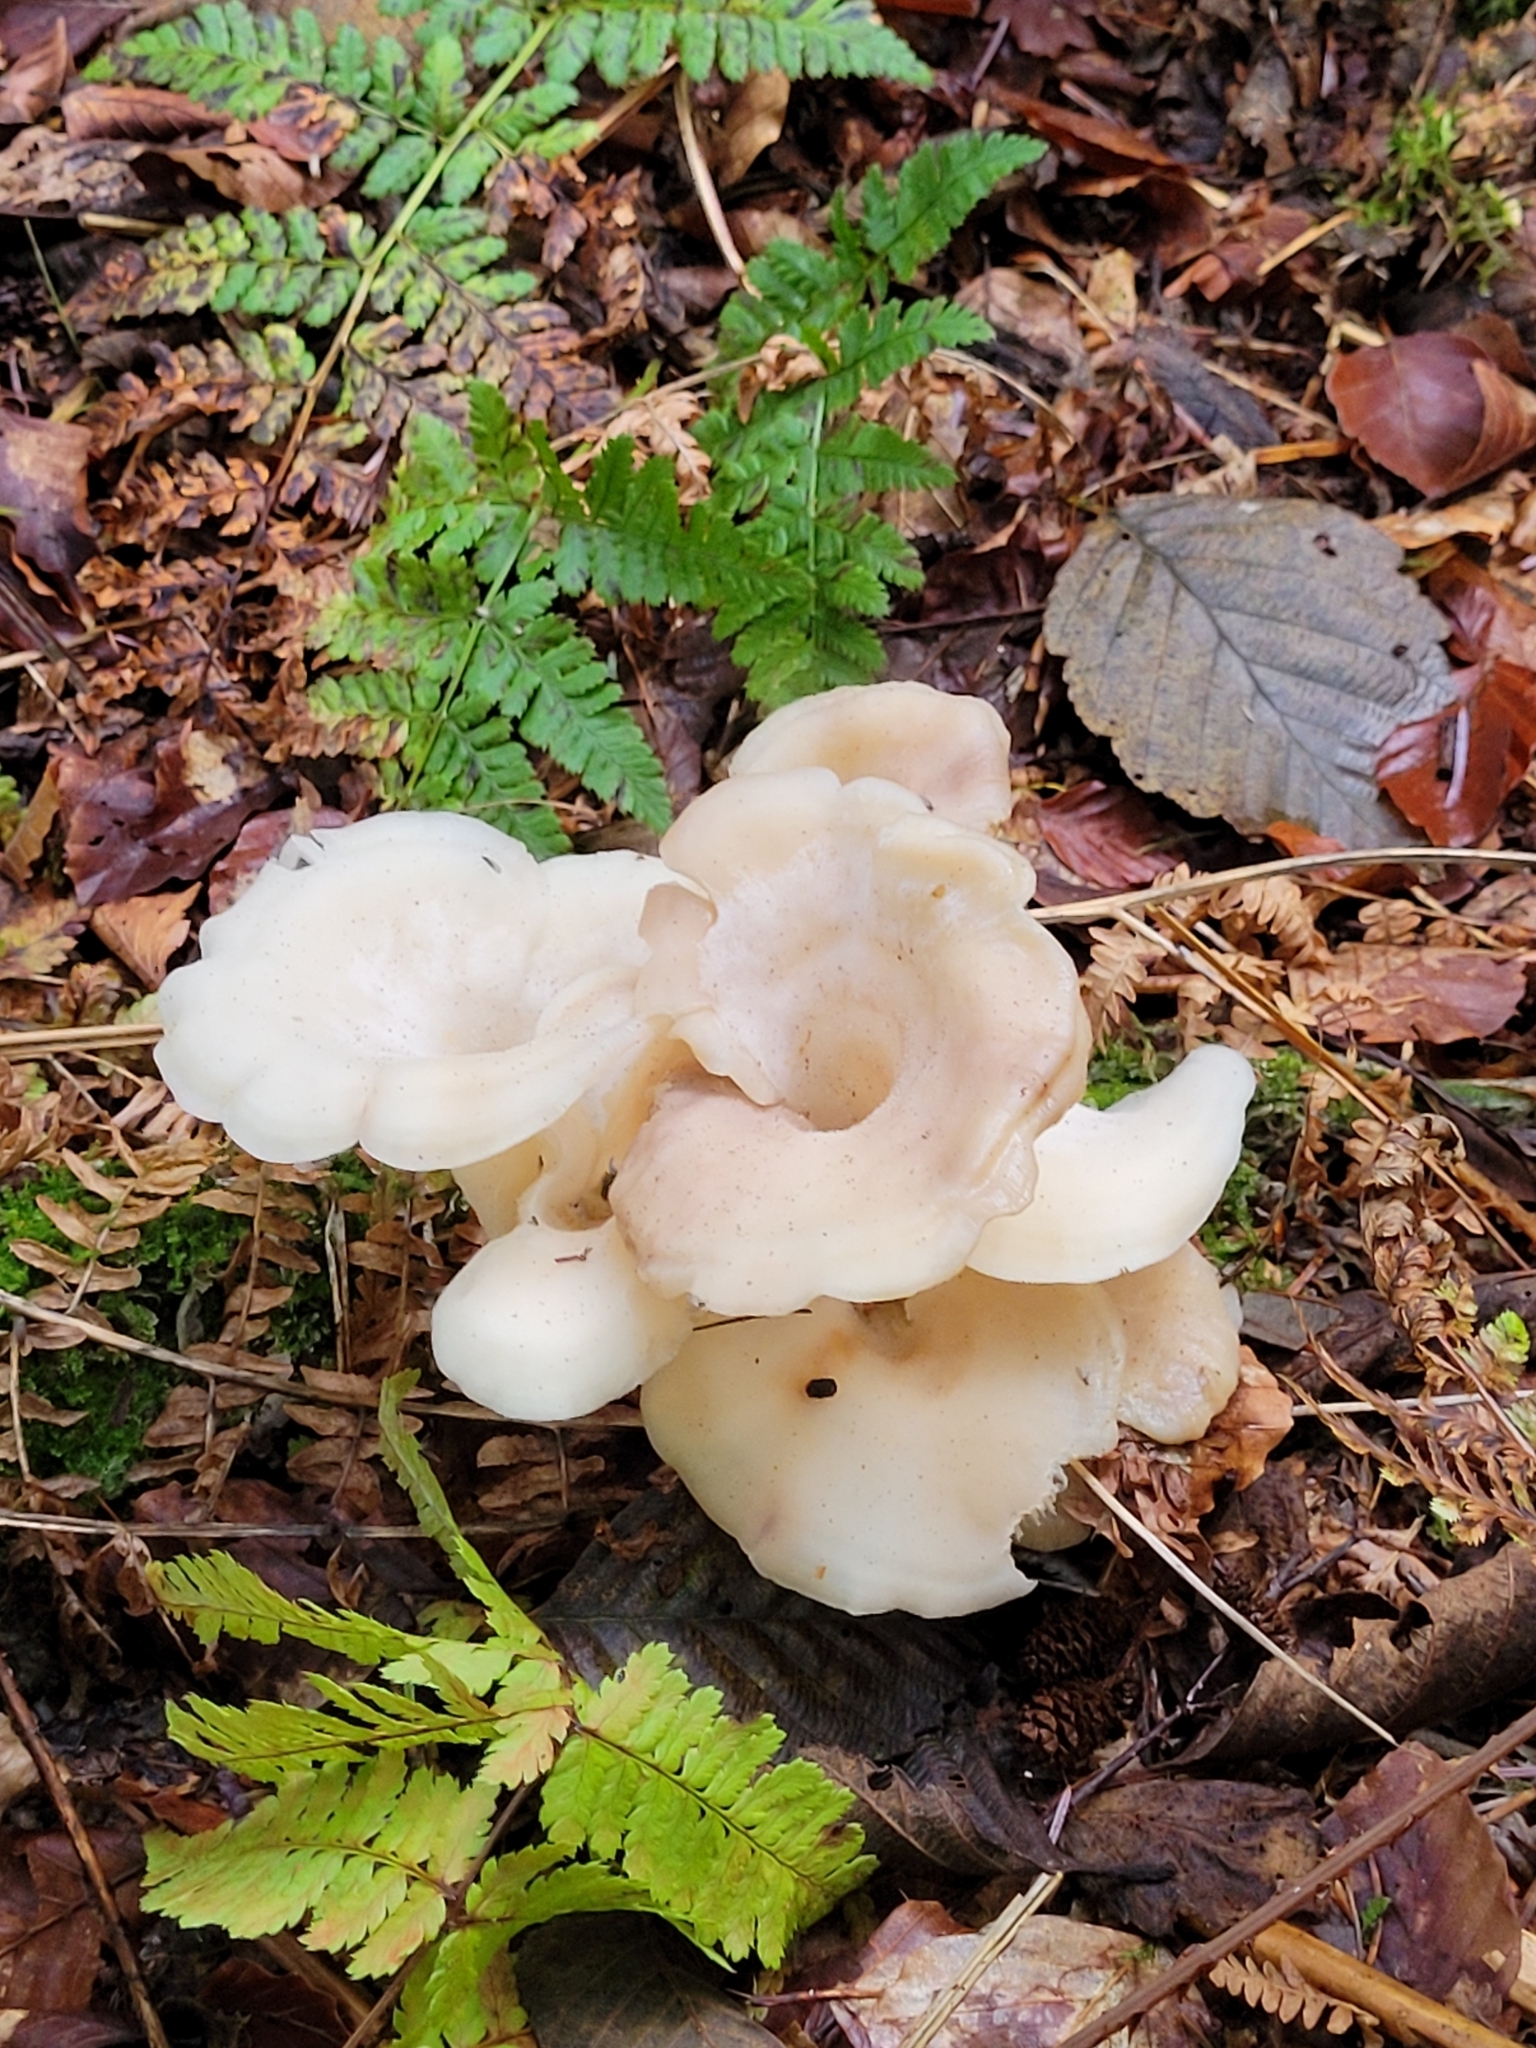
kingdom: Fungi
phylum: Basidiomycota
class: Agaricomycetes
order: Agaricales
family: Marasmiaceae
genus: Pleurocybella
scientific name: Pleurocybella porrigens
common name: Angel's wings
